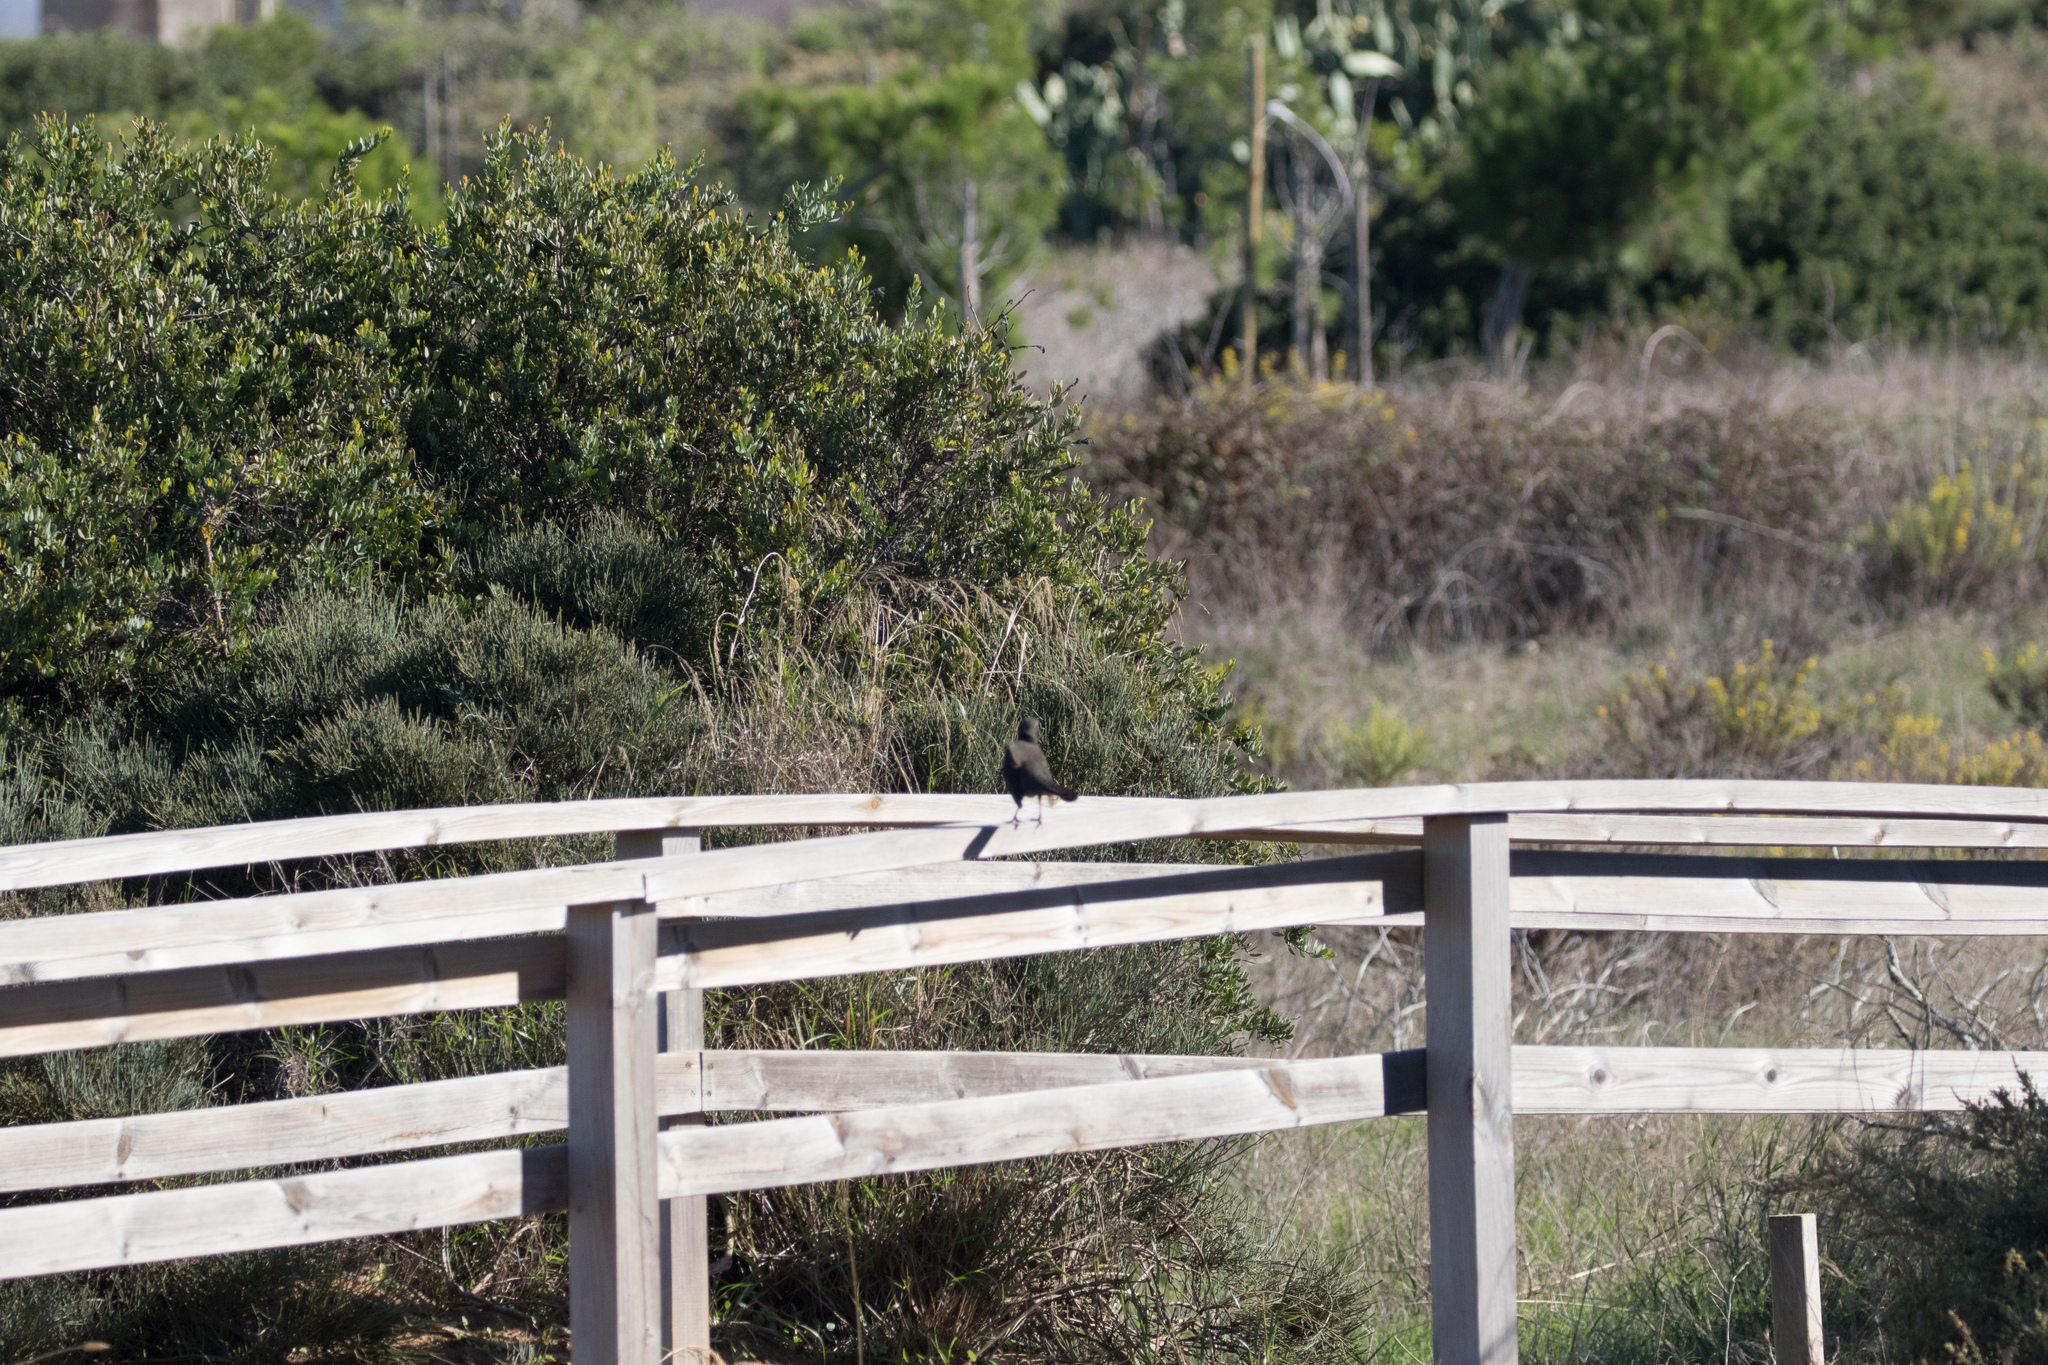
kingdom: Animalia
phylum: Chordata
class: Aves
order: Passeriformes
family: Turdidae
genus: Turdus
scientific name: Turdus merula
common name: Common blackbird
